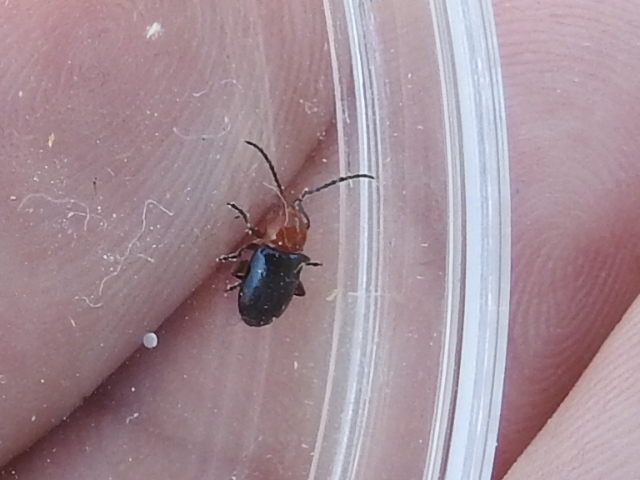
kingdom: Animalia
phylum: Arthropoda
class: Insecta
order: Coleoptera
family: Chrysomelidae
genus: Syphrea
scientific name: Syphrea flavicollis
